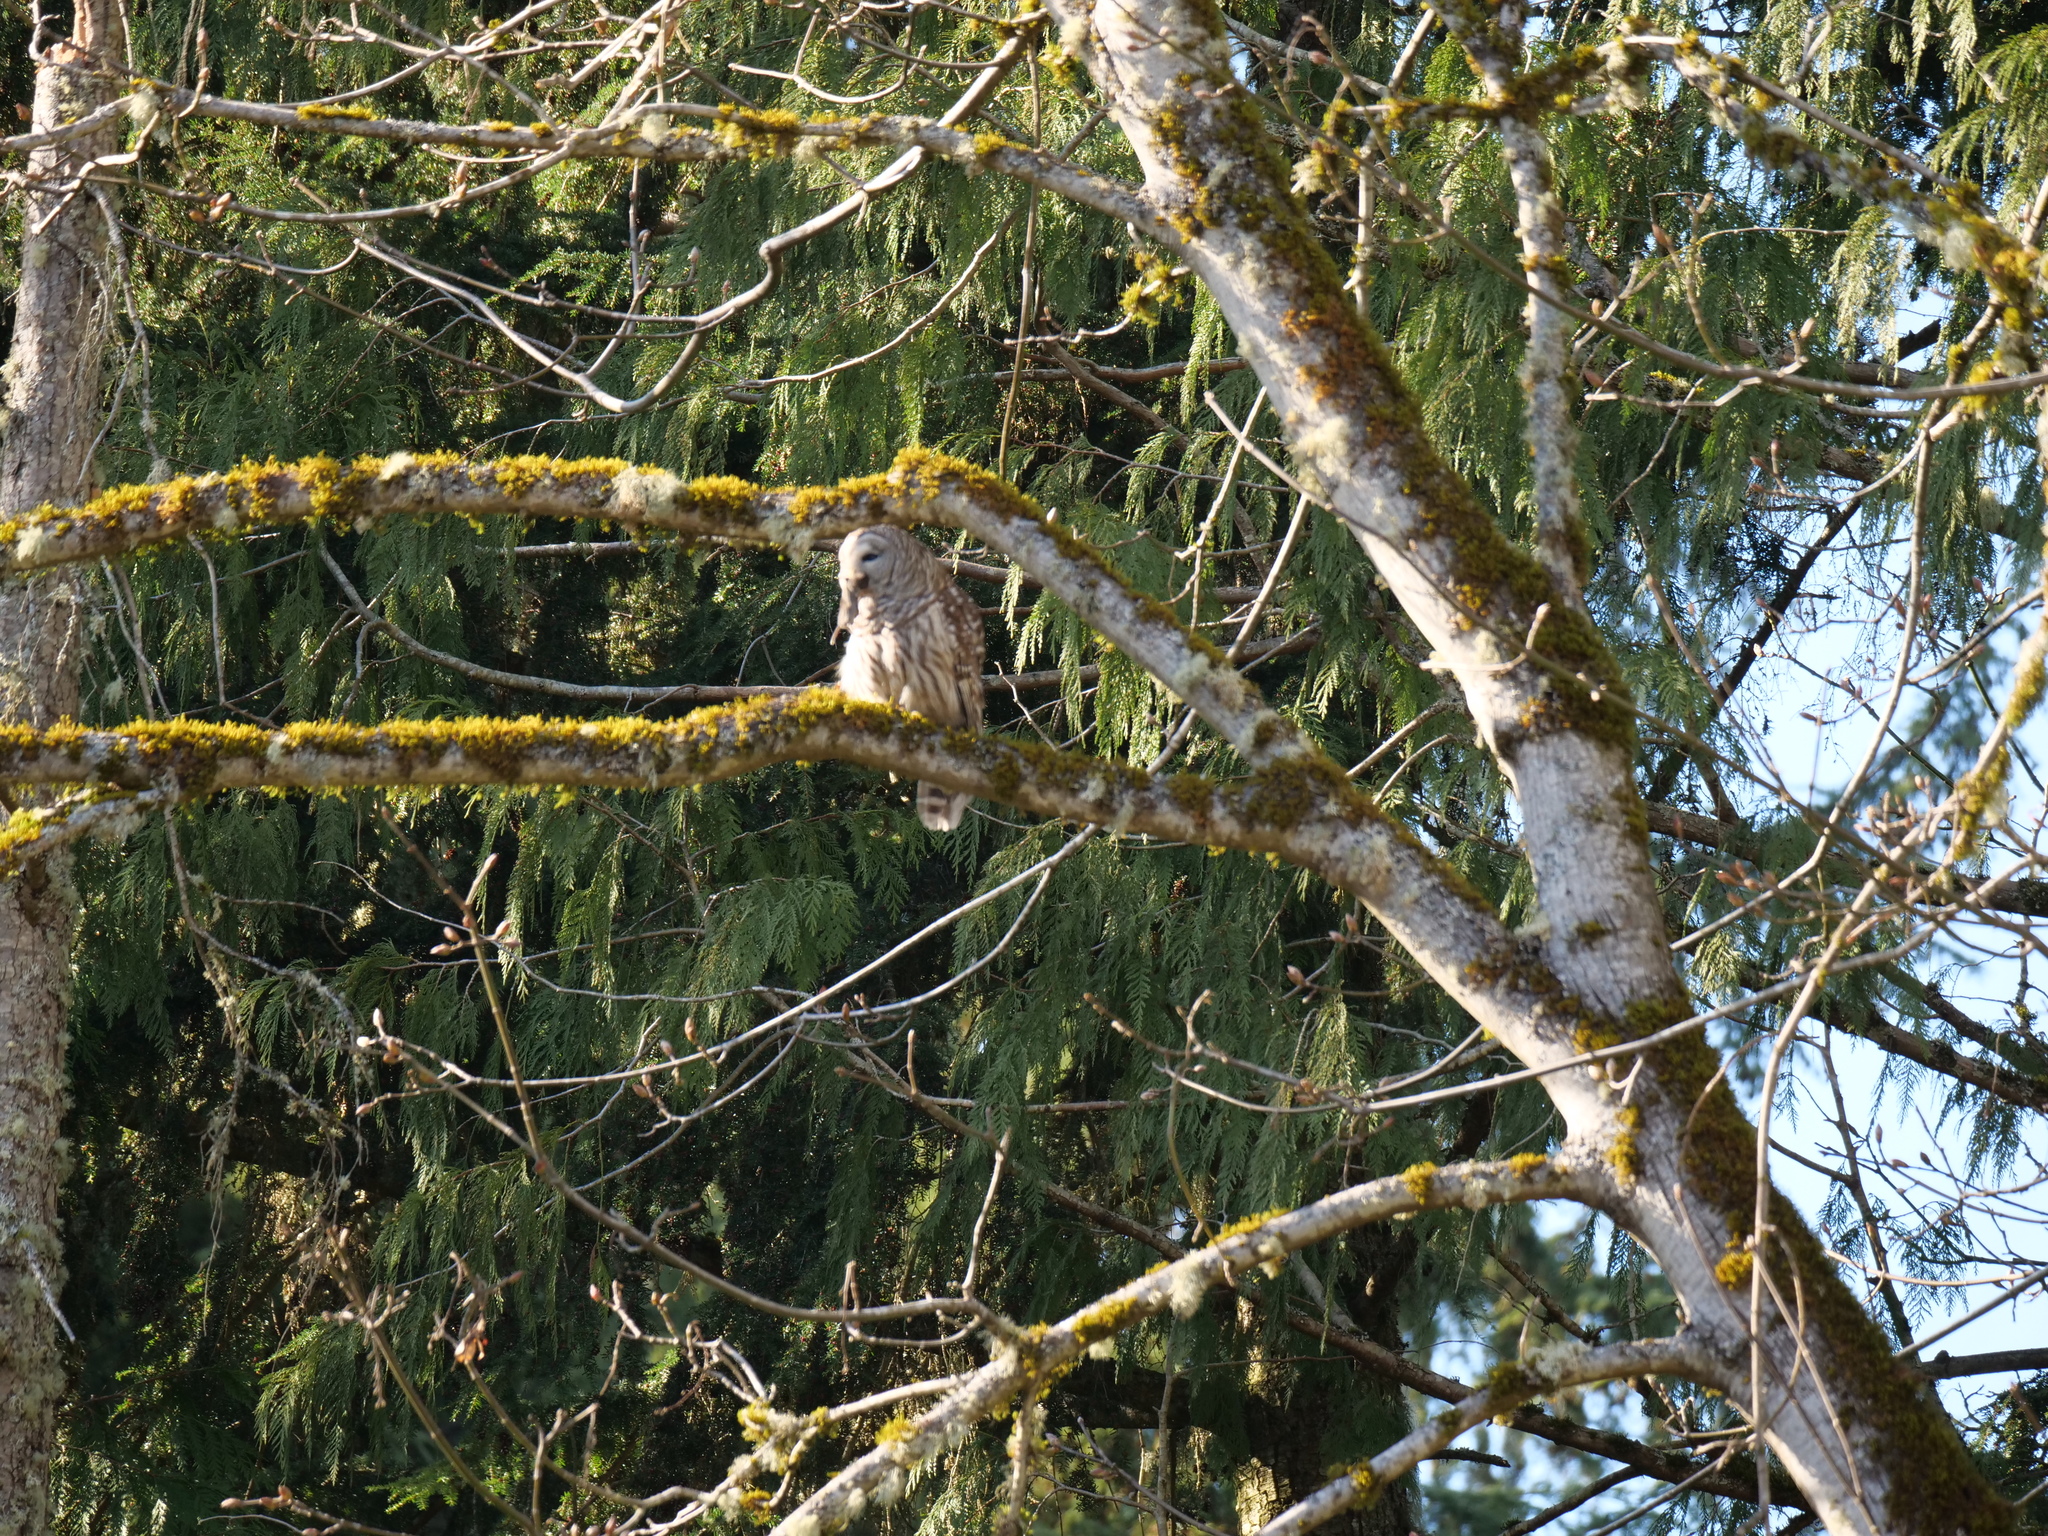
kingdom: Animalia
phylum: Chordata
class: Aves
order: Strigiformes
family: Strigidae
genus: Strix
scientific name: Strix varia
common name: Barred owl
